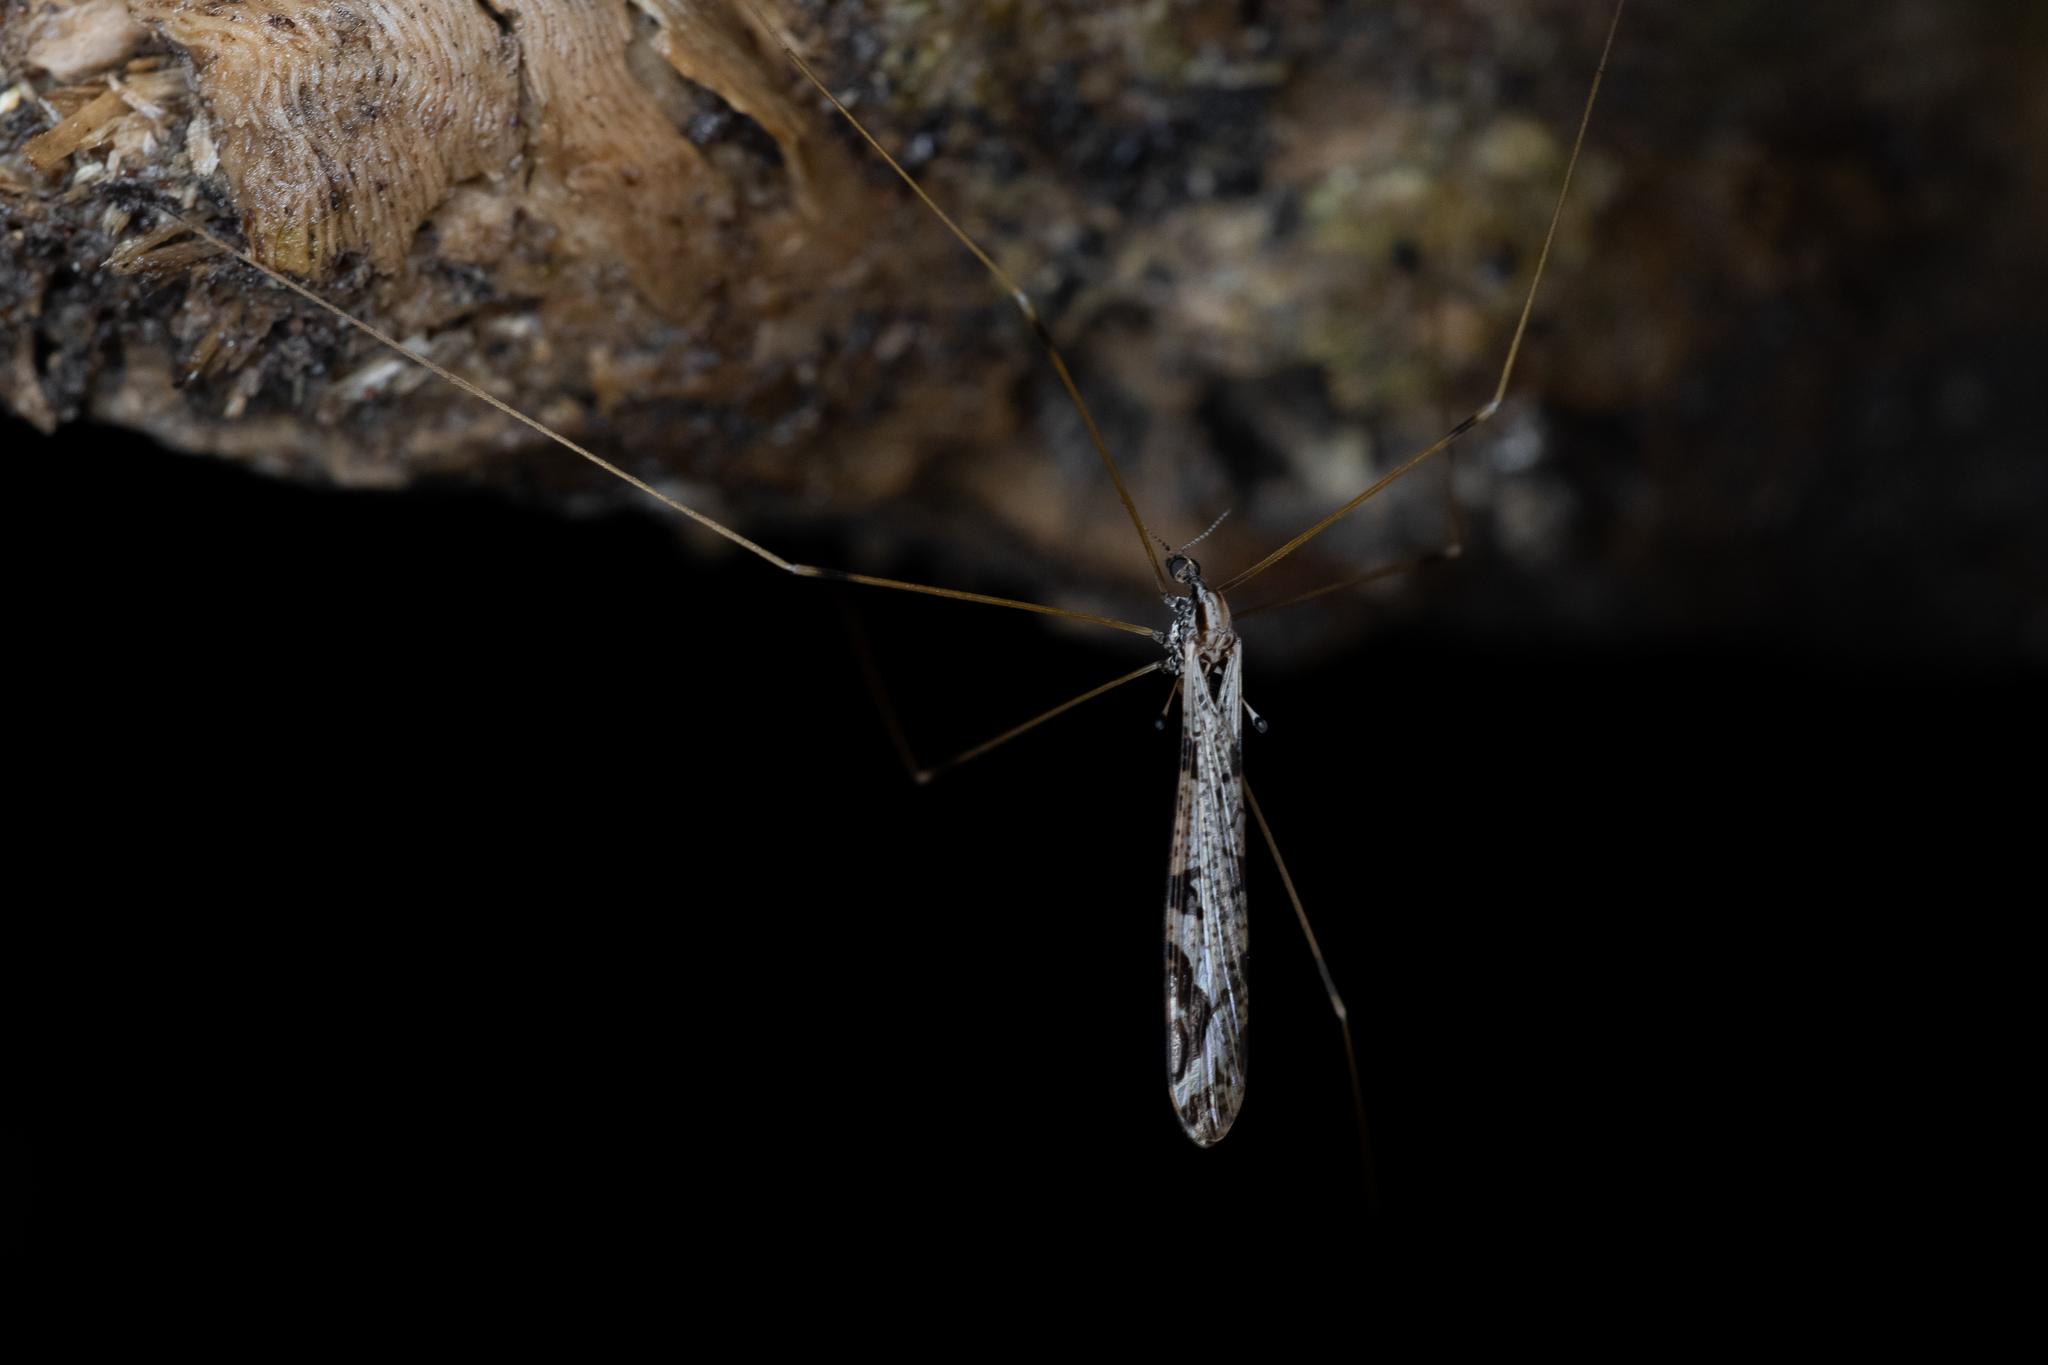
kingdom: Animalia
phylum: Arthropoda
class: Insecta
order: Diptera
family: Limoniidae
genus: Discobola
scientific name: Discobola striata
